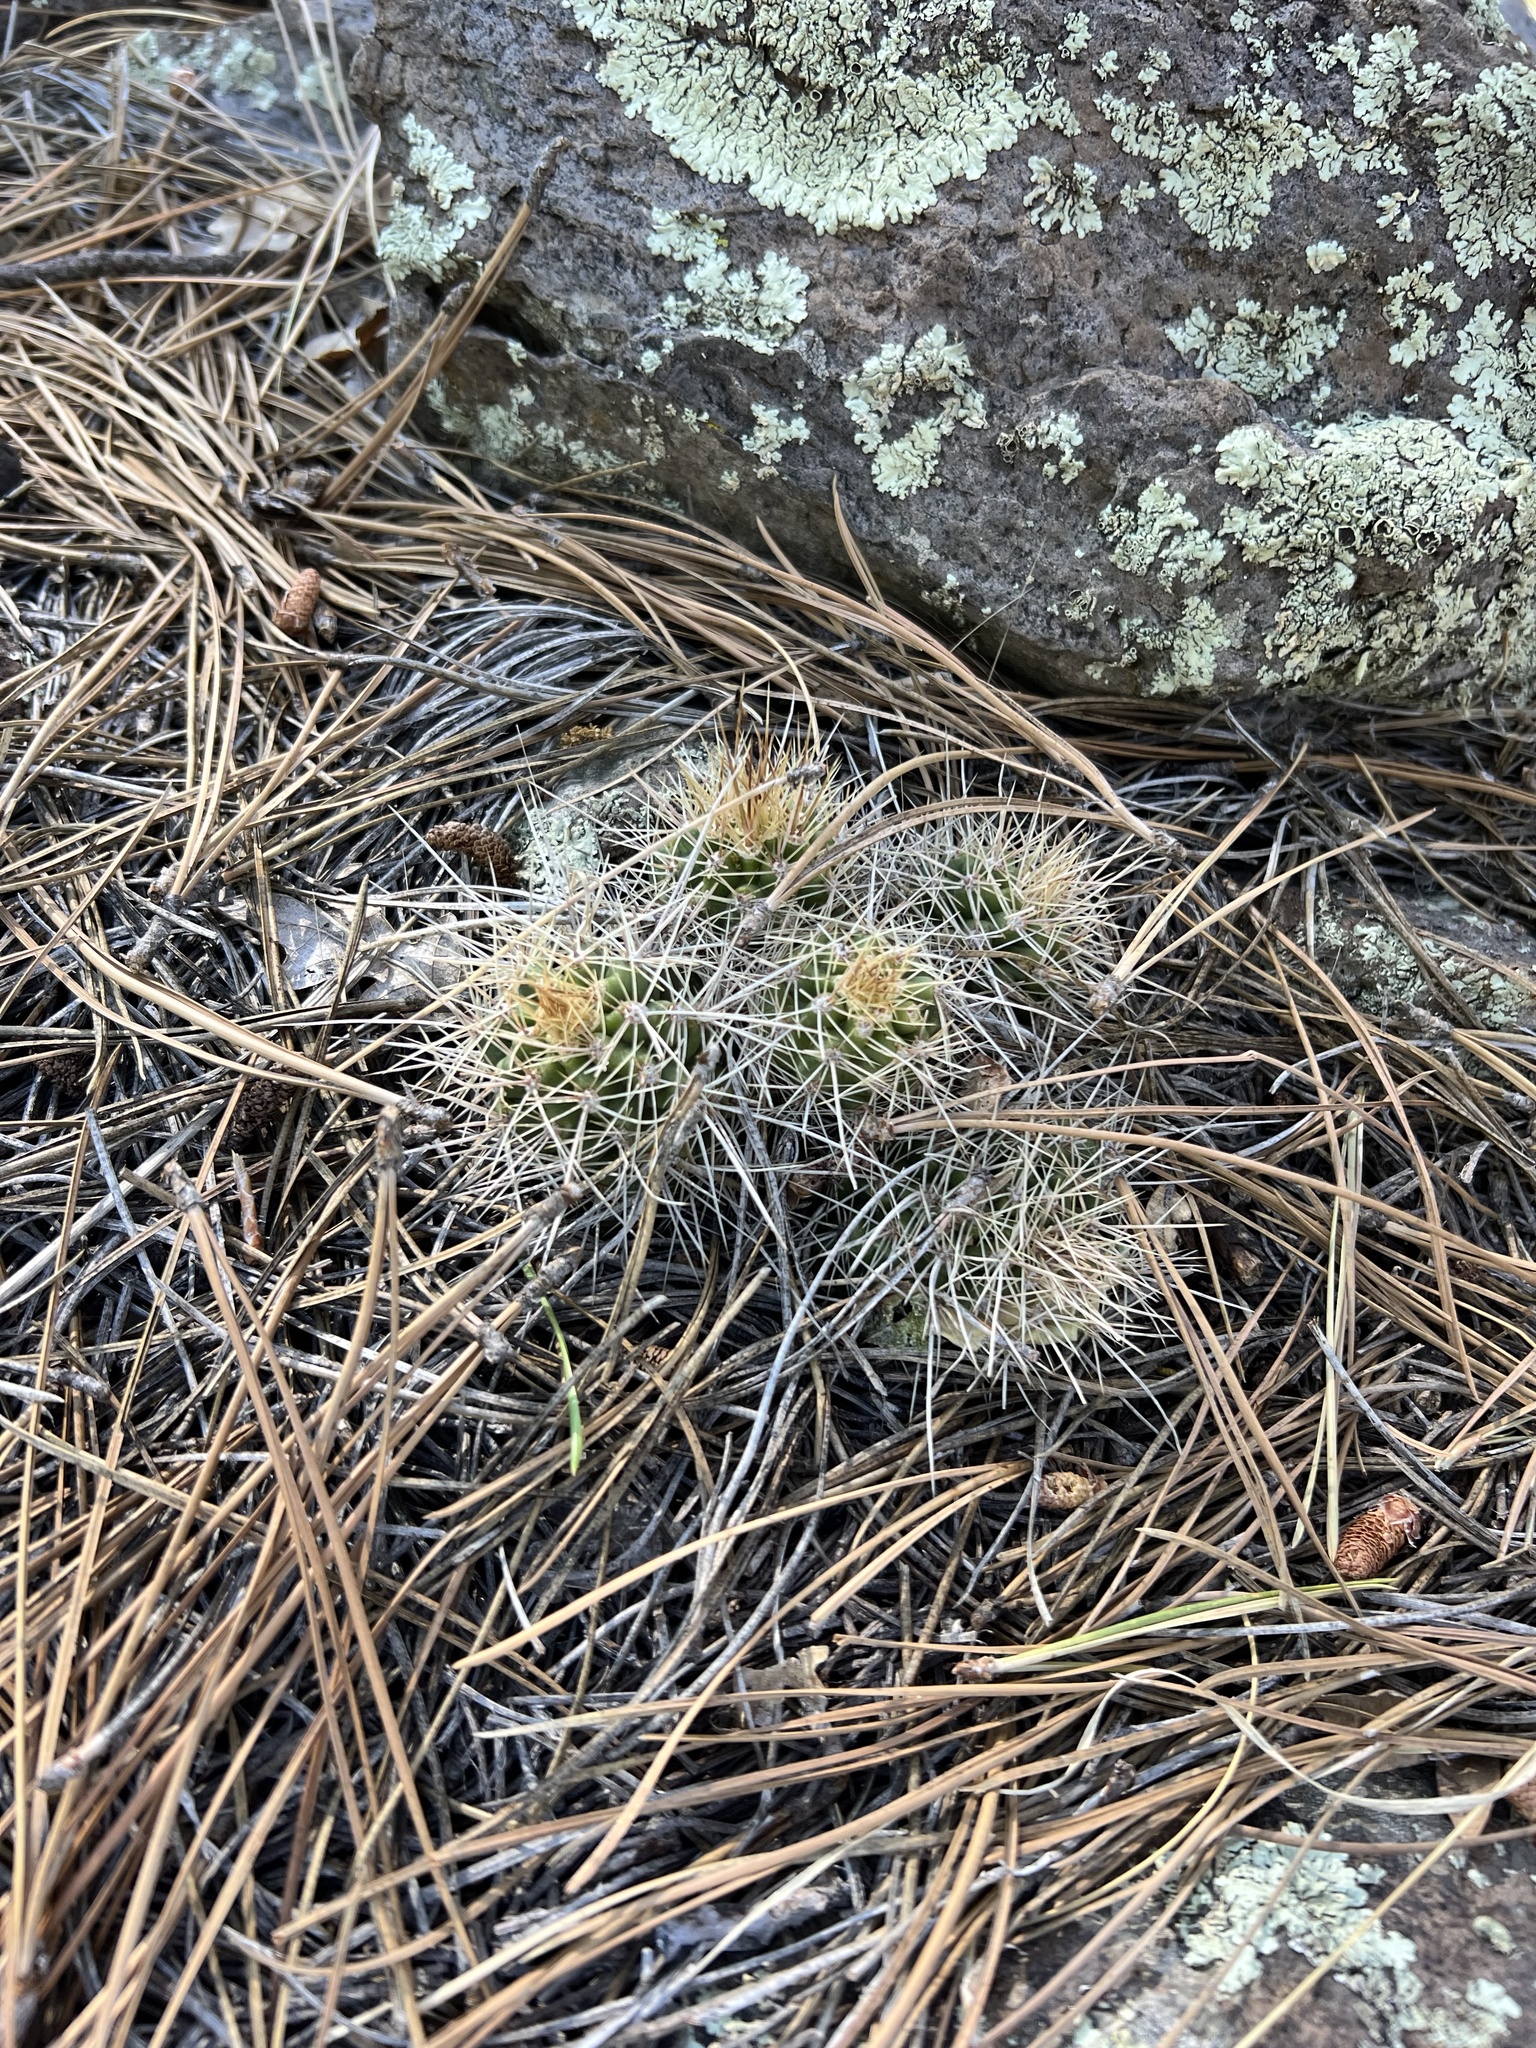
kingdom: Plantae
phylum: Tracheophyta
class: Magnoliopsida
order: Caryophyllales
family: Cactaceae
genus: Echinocereus
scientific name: Echinocereus bakeri
